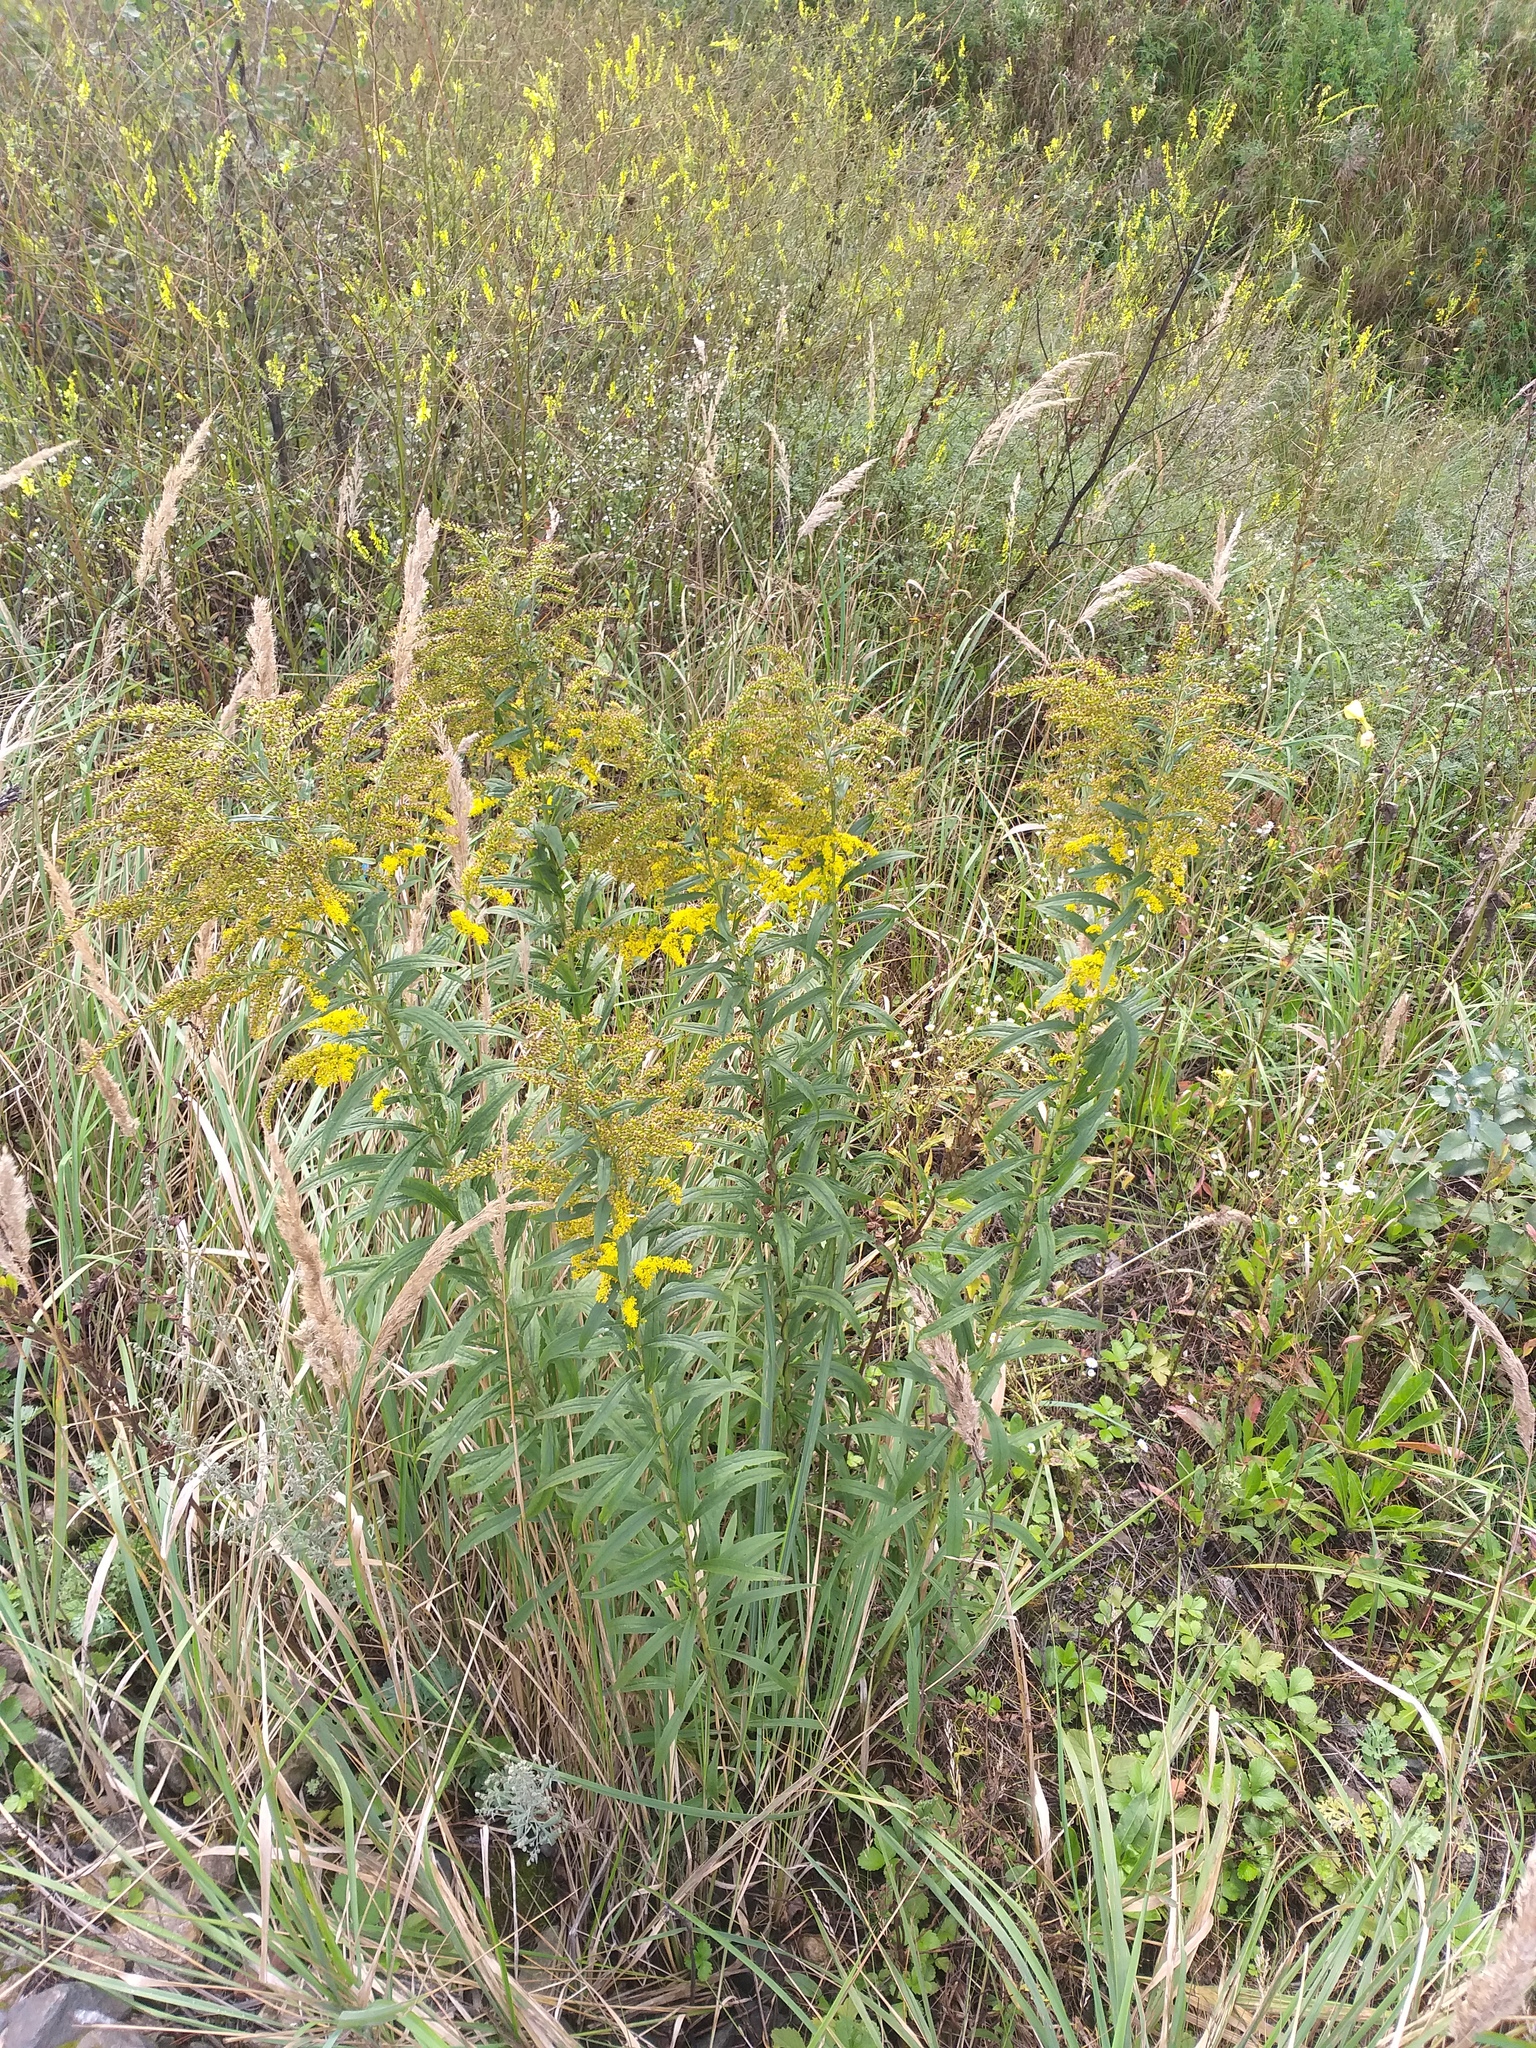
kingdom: Plantae
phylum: Tracheophyta
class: Magnoliopsida
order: Asterales
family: Asteraceae
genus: Solidago
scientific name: Solidago canadensis
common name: Canada goldenrod
